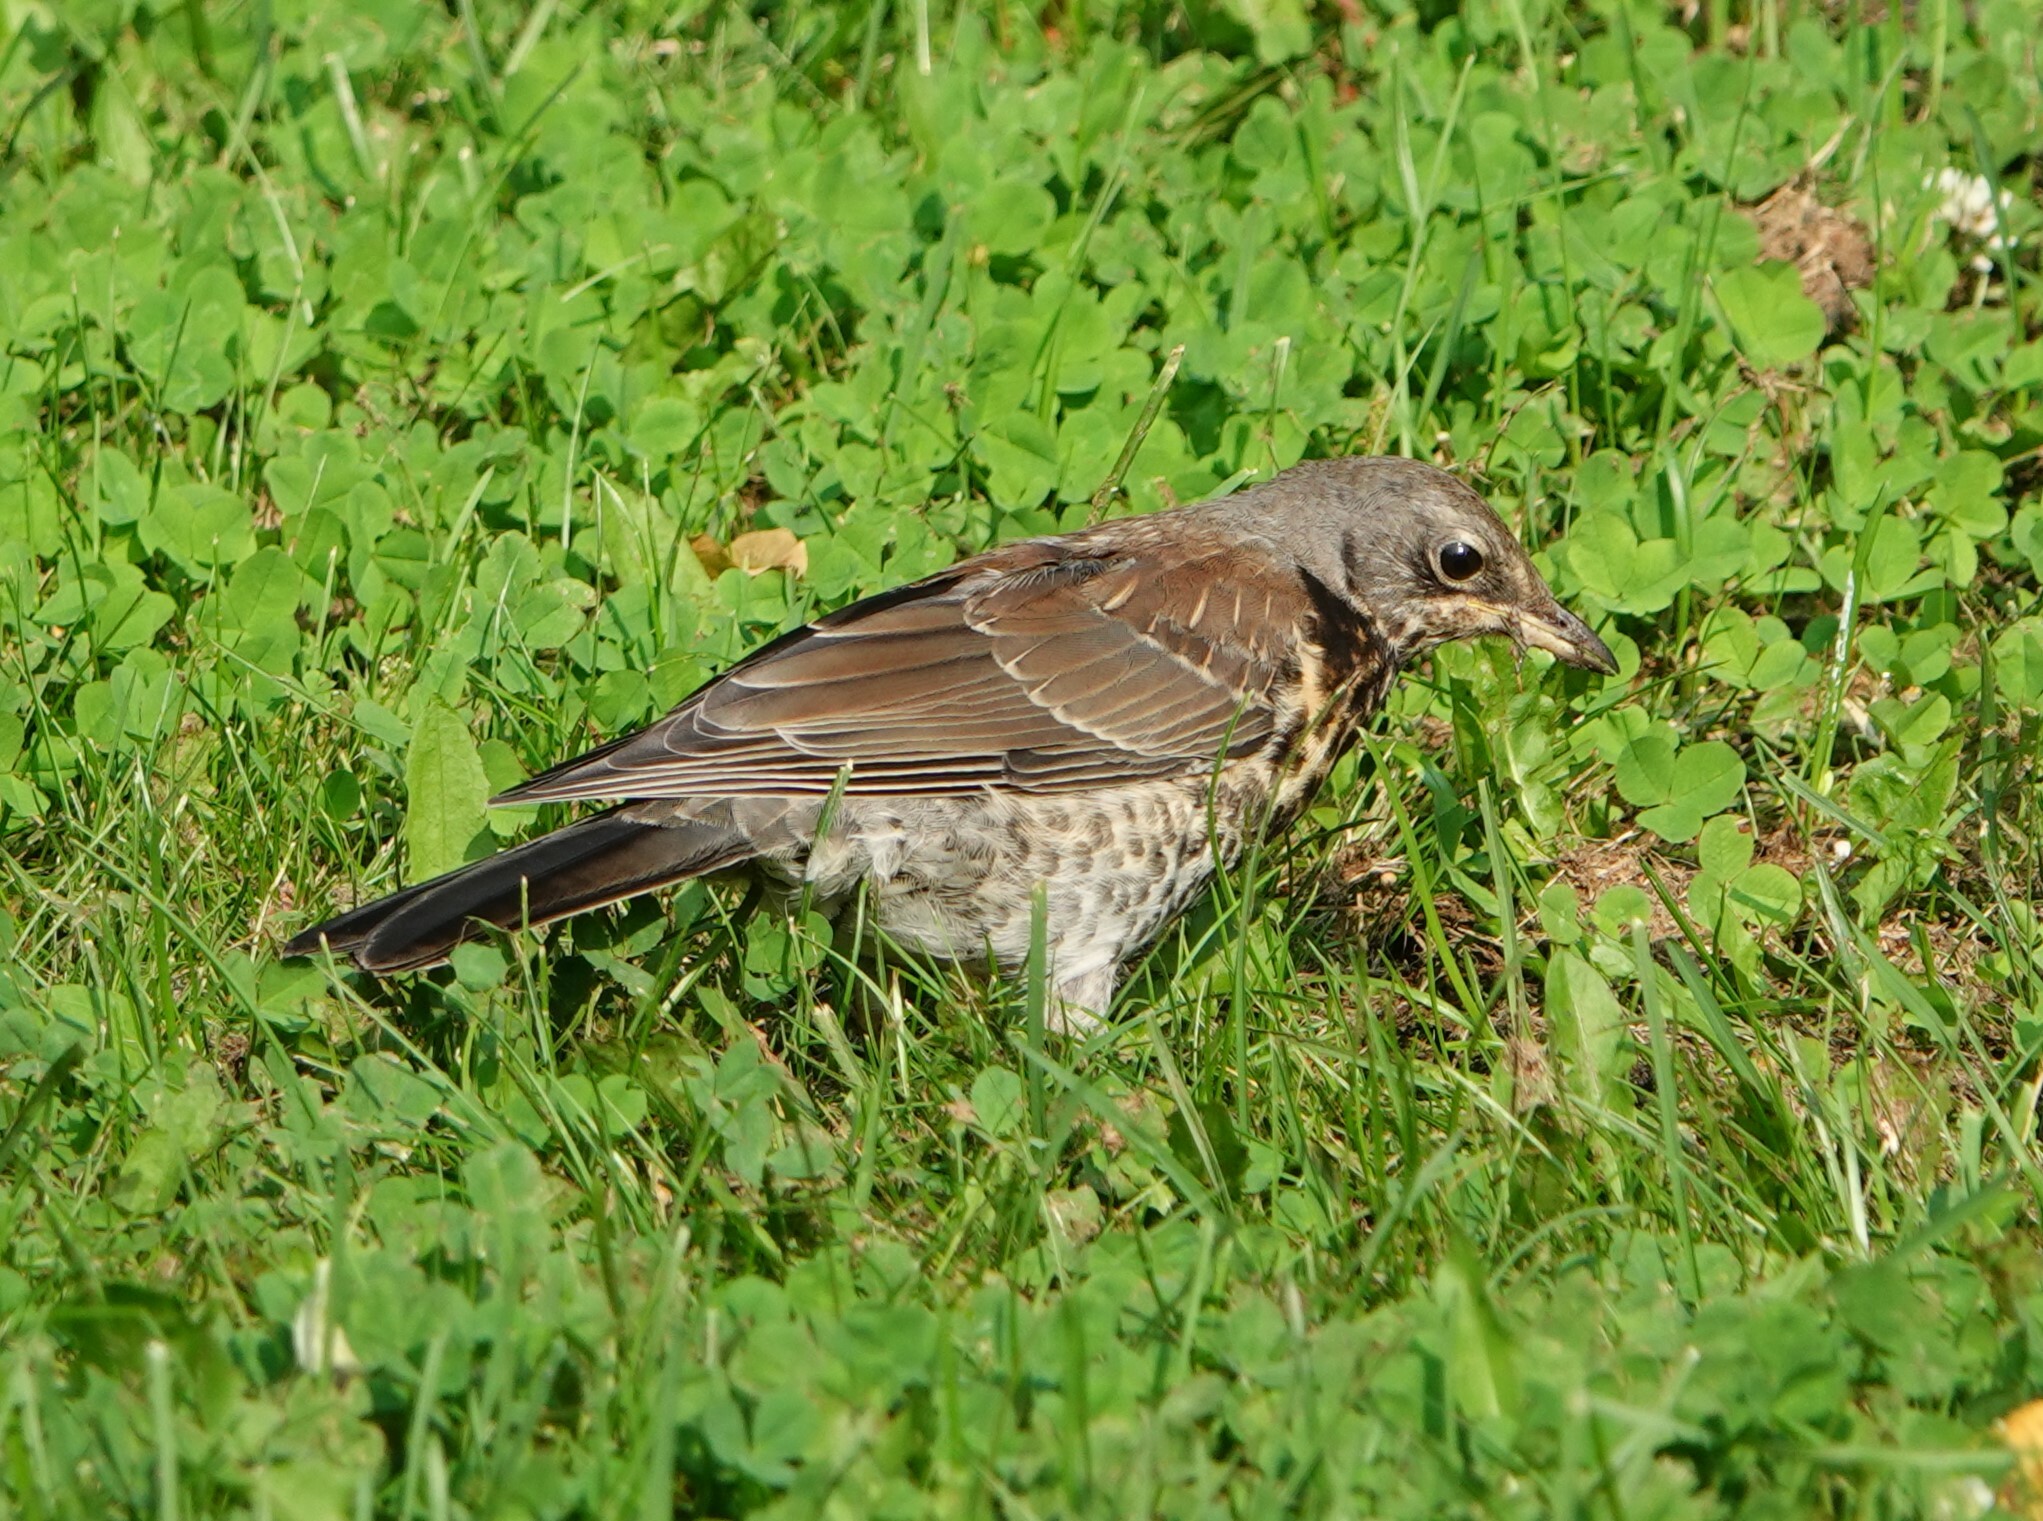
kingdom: Animalia
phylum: Chordata
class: Aves
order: Passeriformes
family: Turdidae
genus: Turdus
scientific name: Turdus pilaris
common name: Fieldfare
